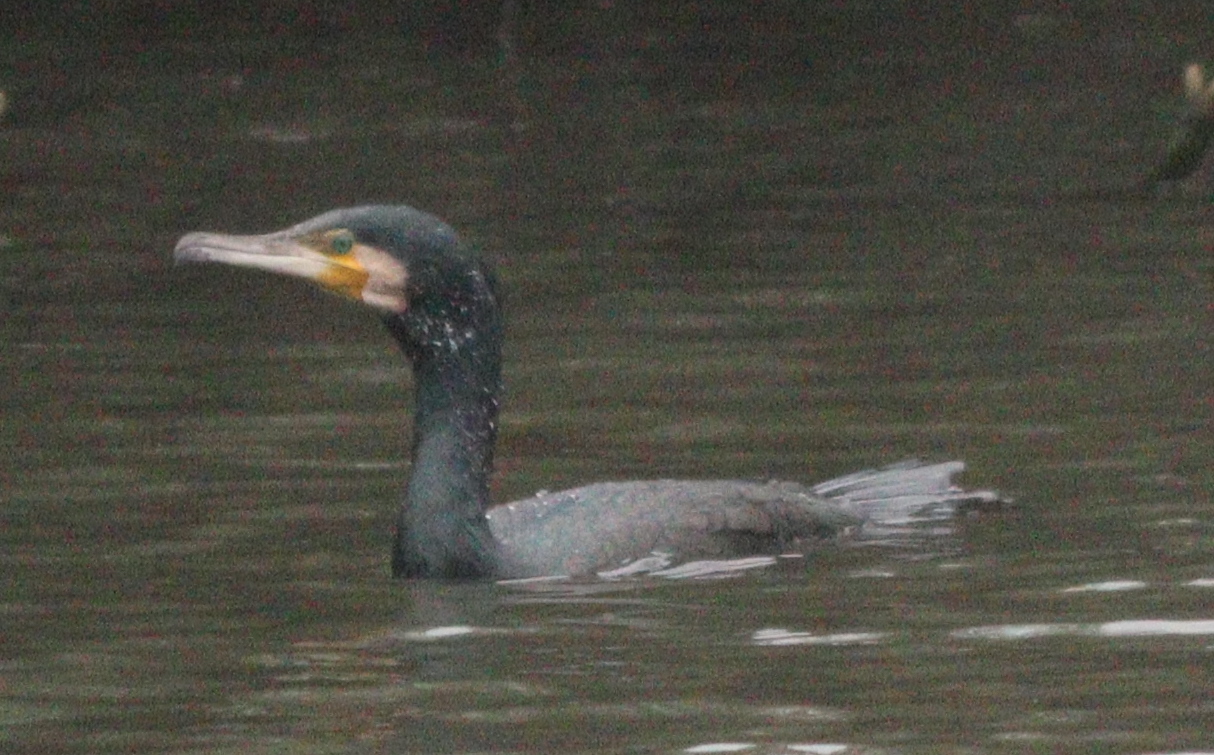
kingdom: Animalia
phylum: Chordata
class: Aves
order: Suliformes
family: Phalacrocoracidae
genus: Phalacrocorax
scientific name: Phalacrocorax carbo
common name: Great cormorant
